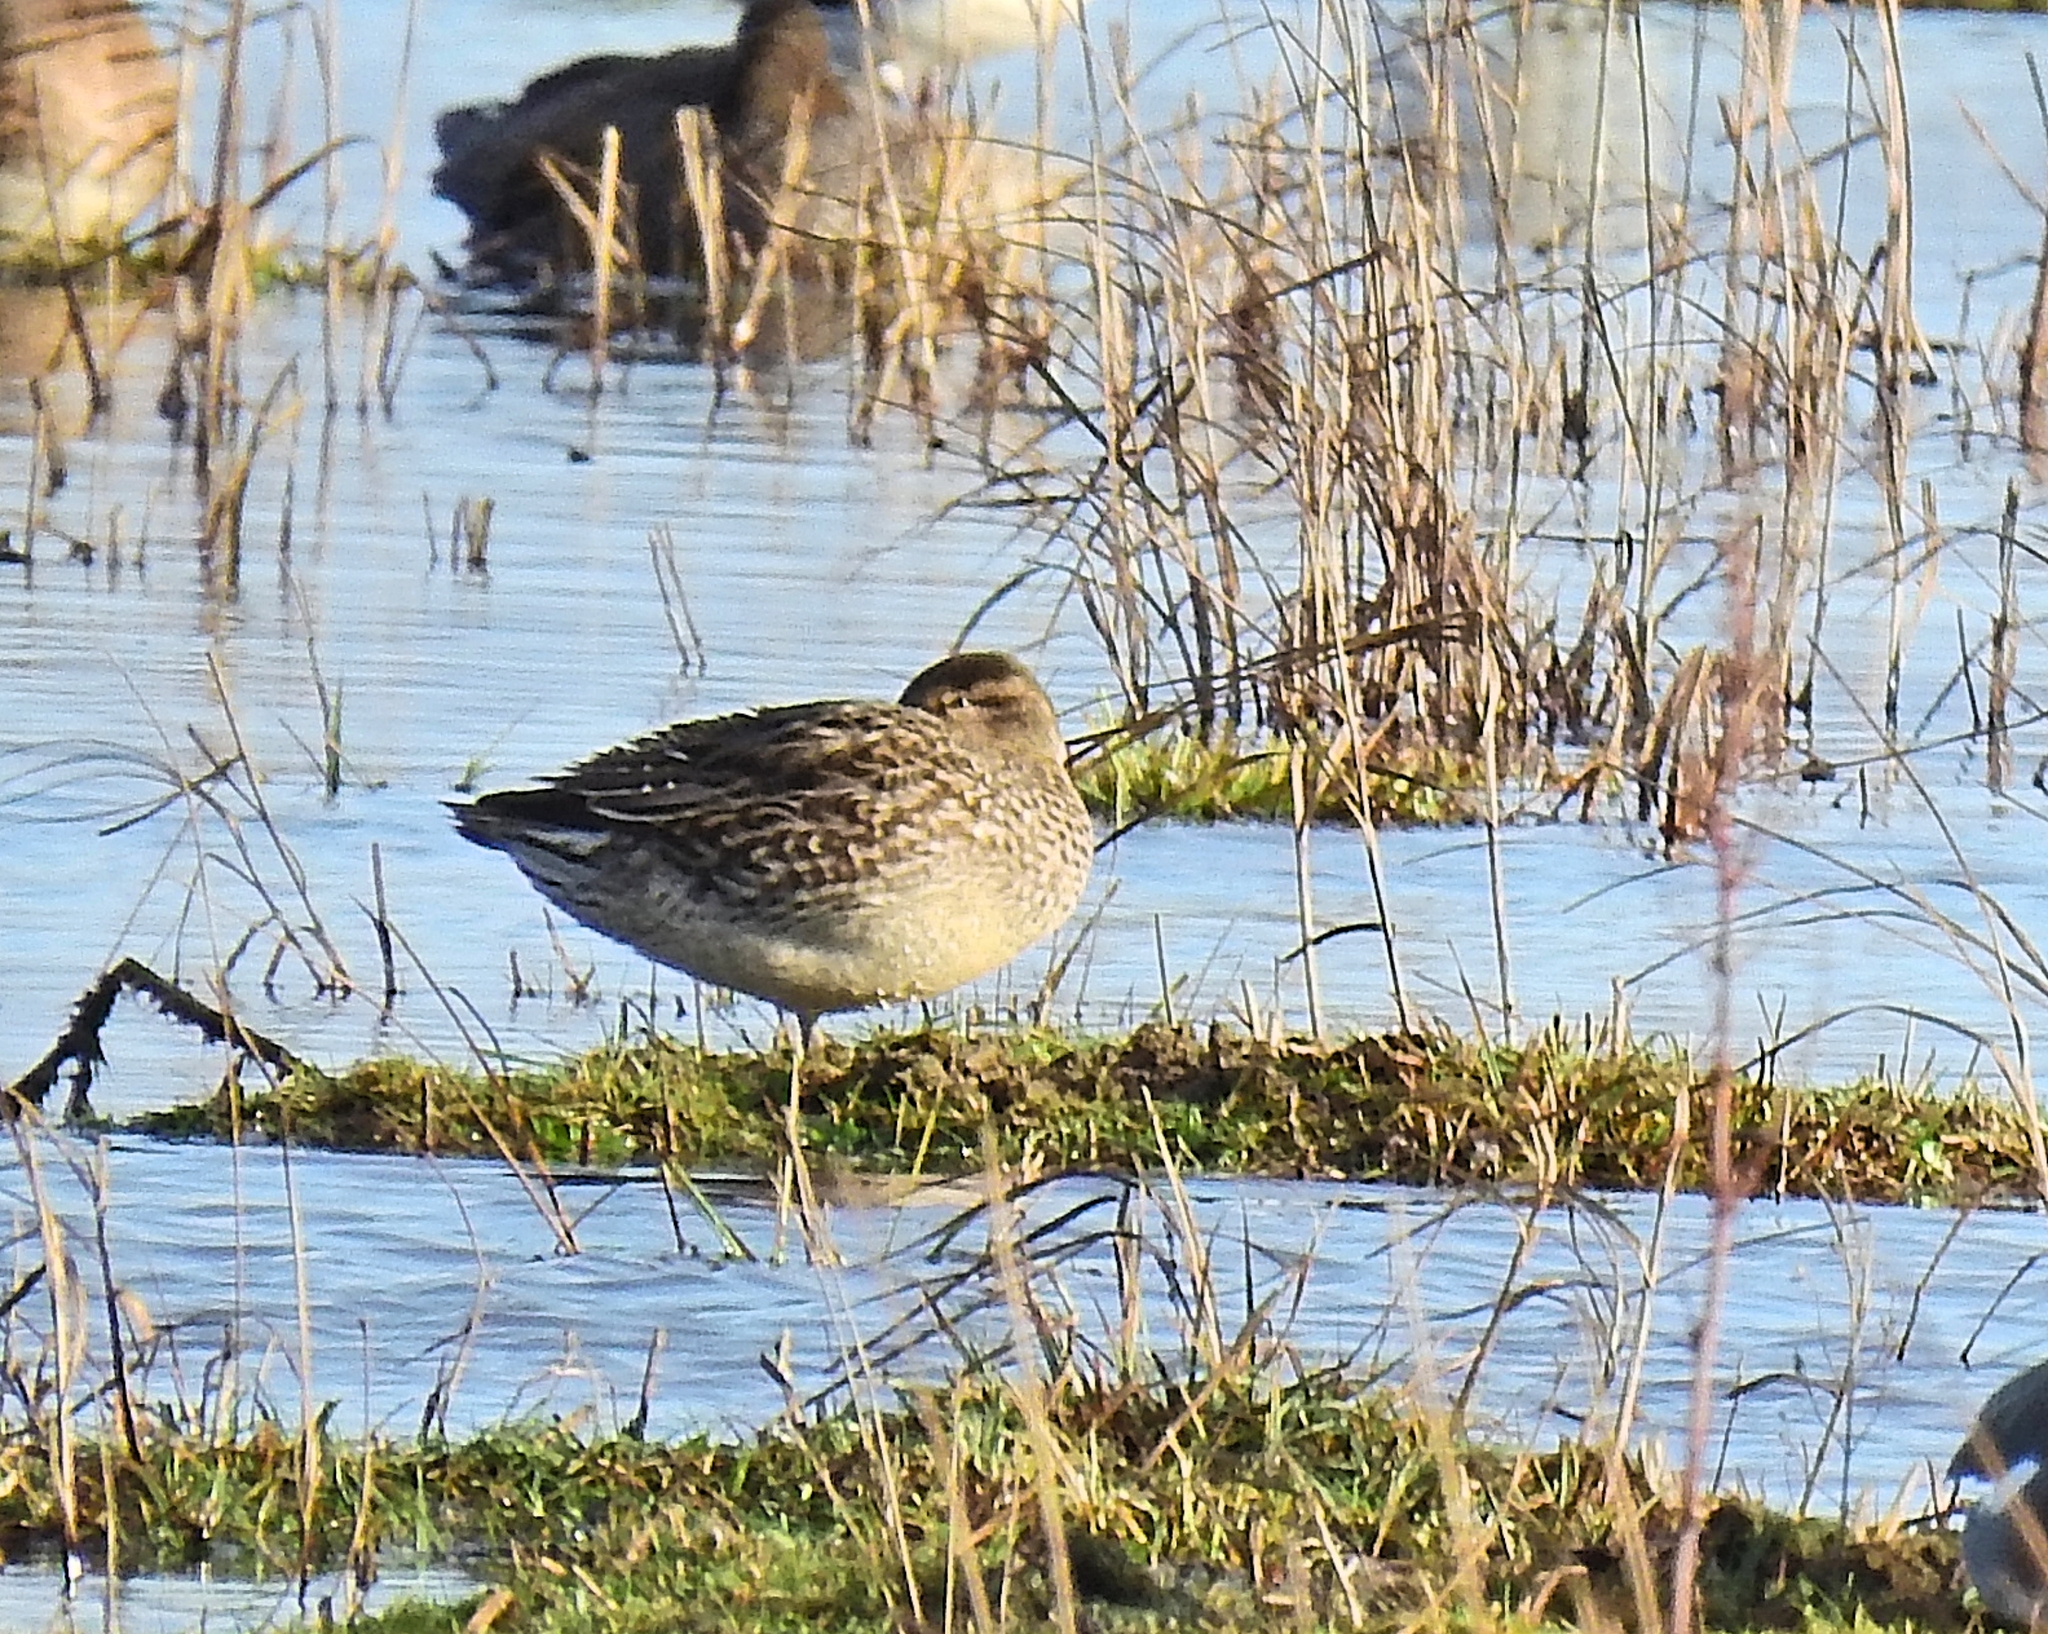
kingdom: Animalia
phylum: Chordata
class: Aves
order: Anseriformes
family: Anatidae
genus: Anas
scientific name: Anas crecca
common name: Eurasian teal
